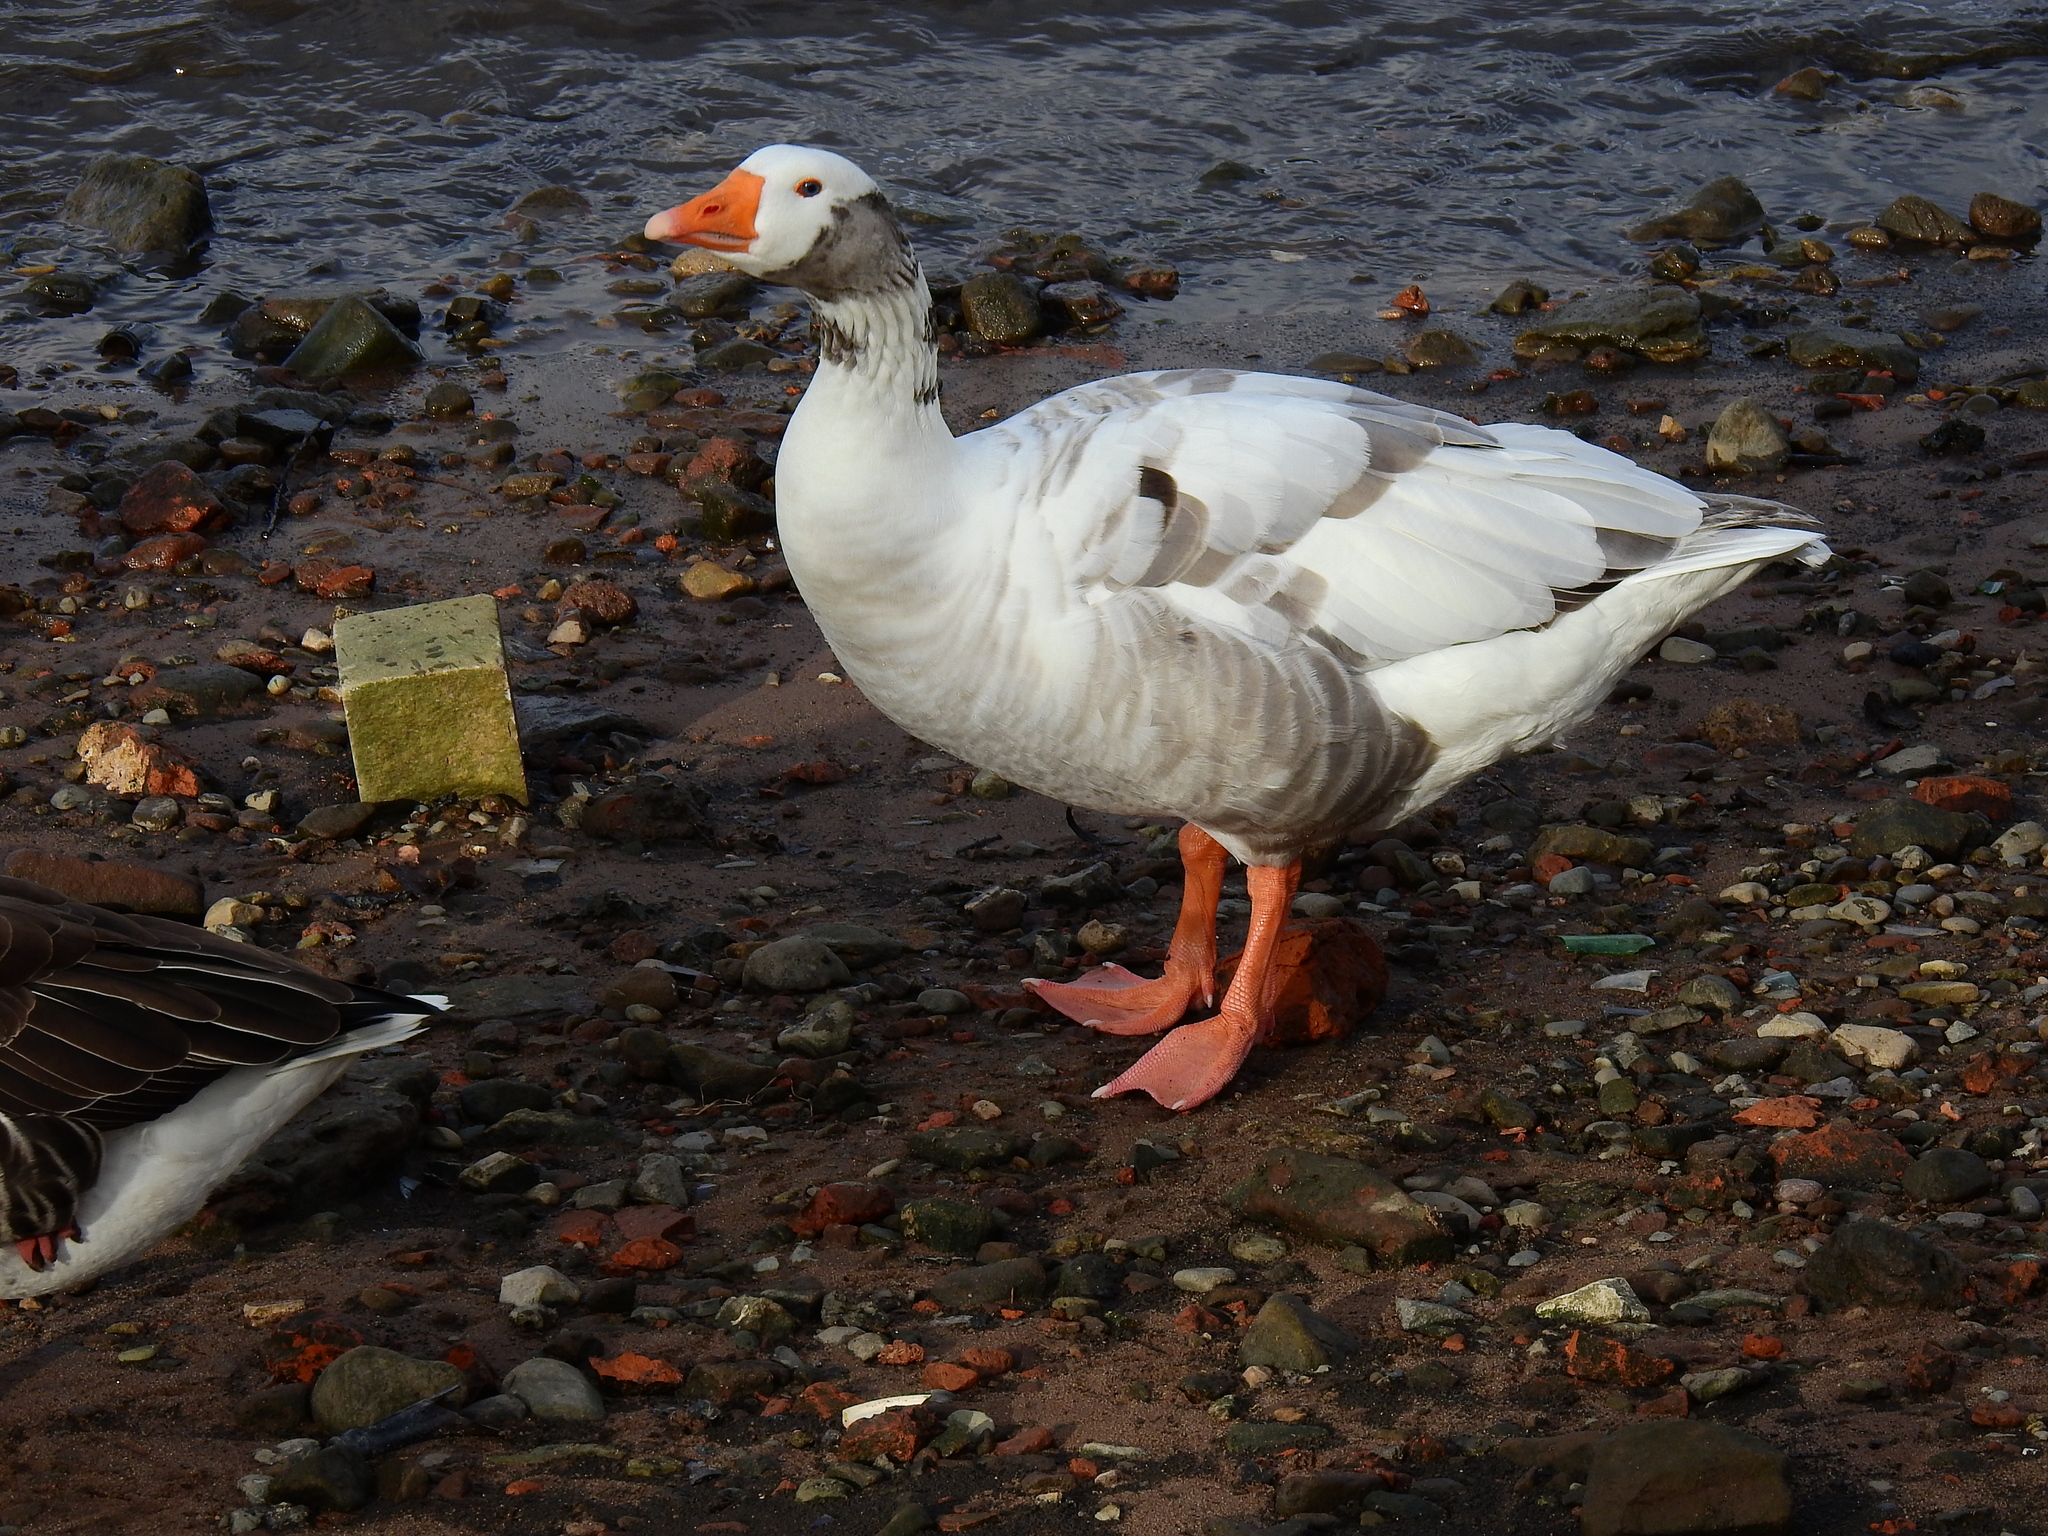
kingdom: Animalia
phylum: Chordata
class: Aves
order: Anseriformes
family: Anatidae
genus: Anser
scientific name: Anser anser
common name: Greylag goose
